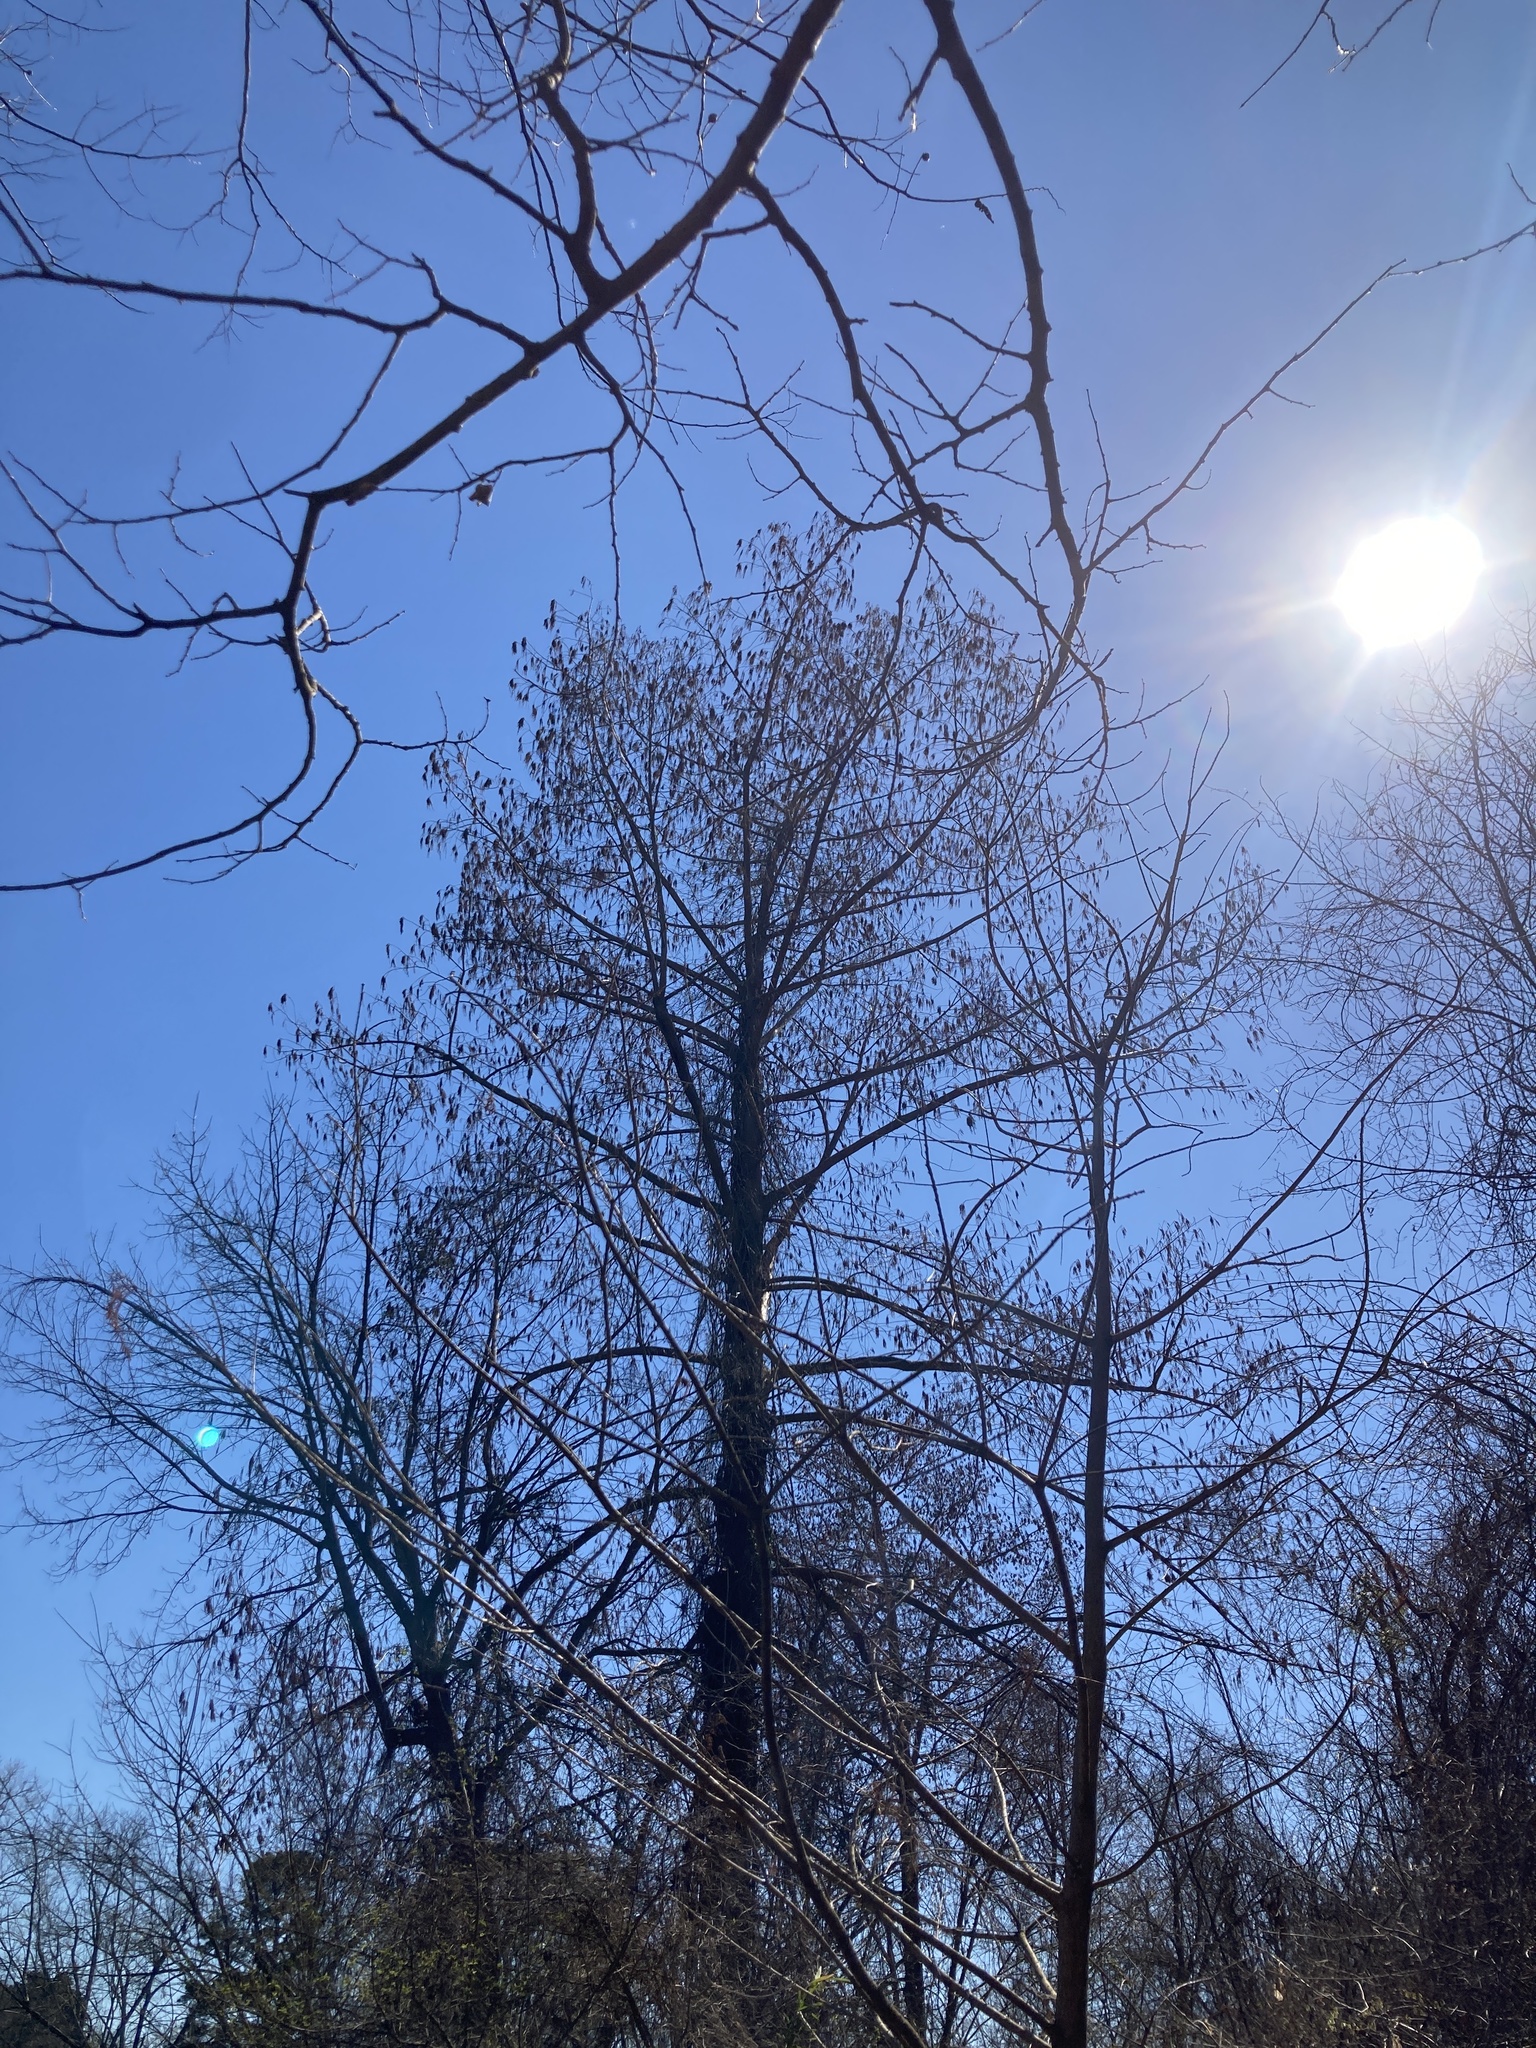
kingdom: Plantae
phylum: Tracheophyta
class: Pinopsida
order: Pinales
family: Cupressaceae
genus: Taxodium
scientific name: Taxodium distichum
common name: Bald cypress
